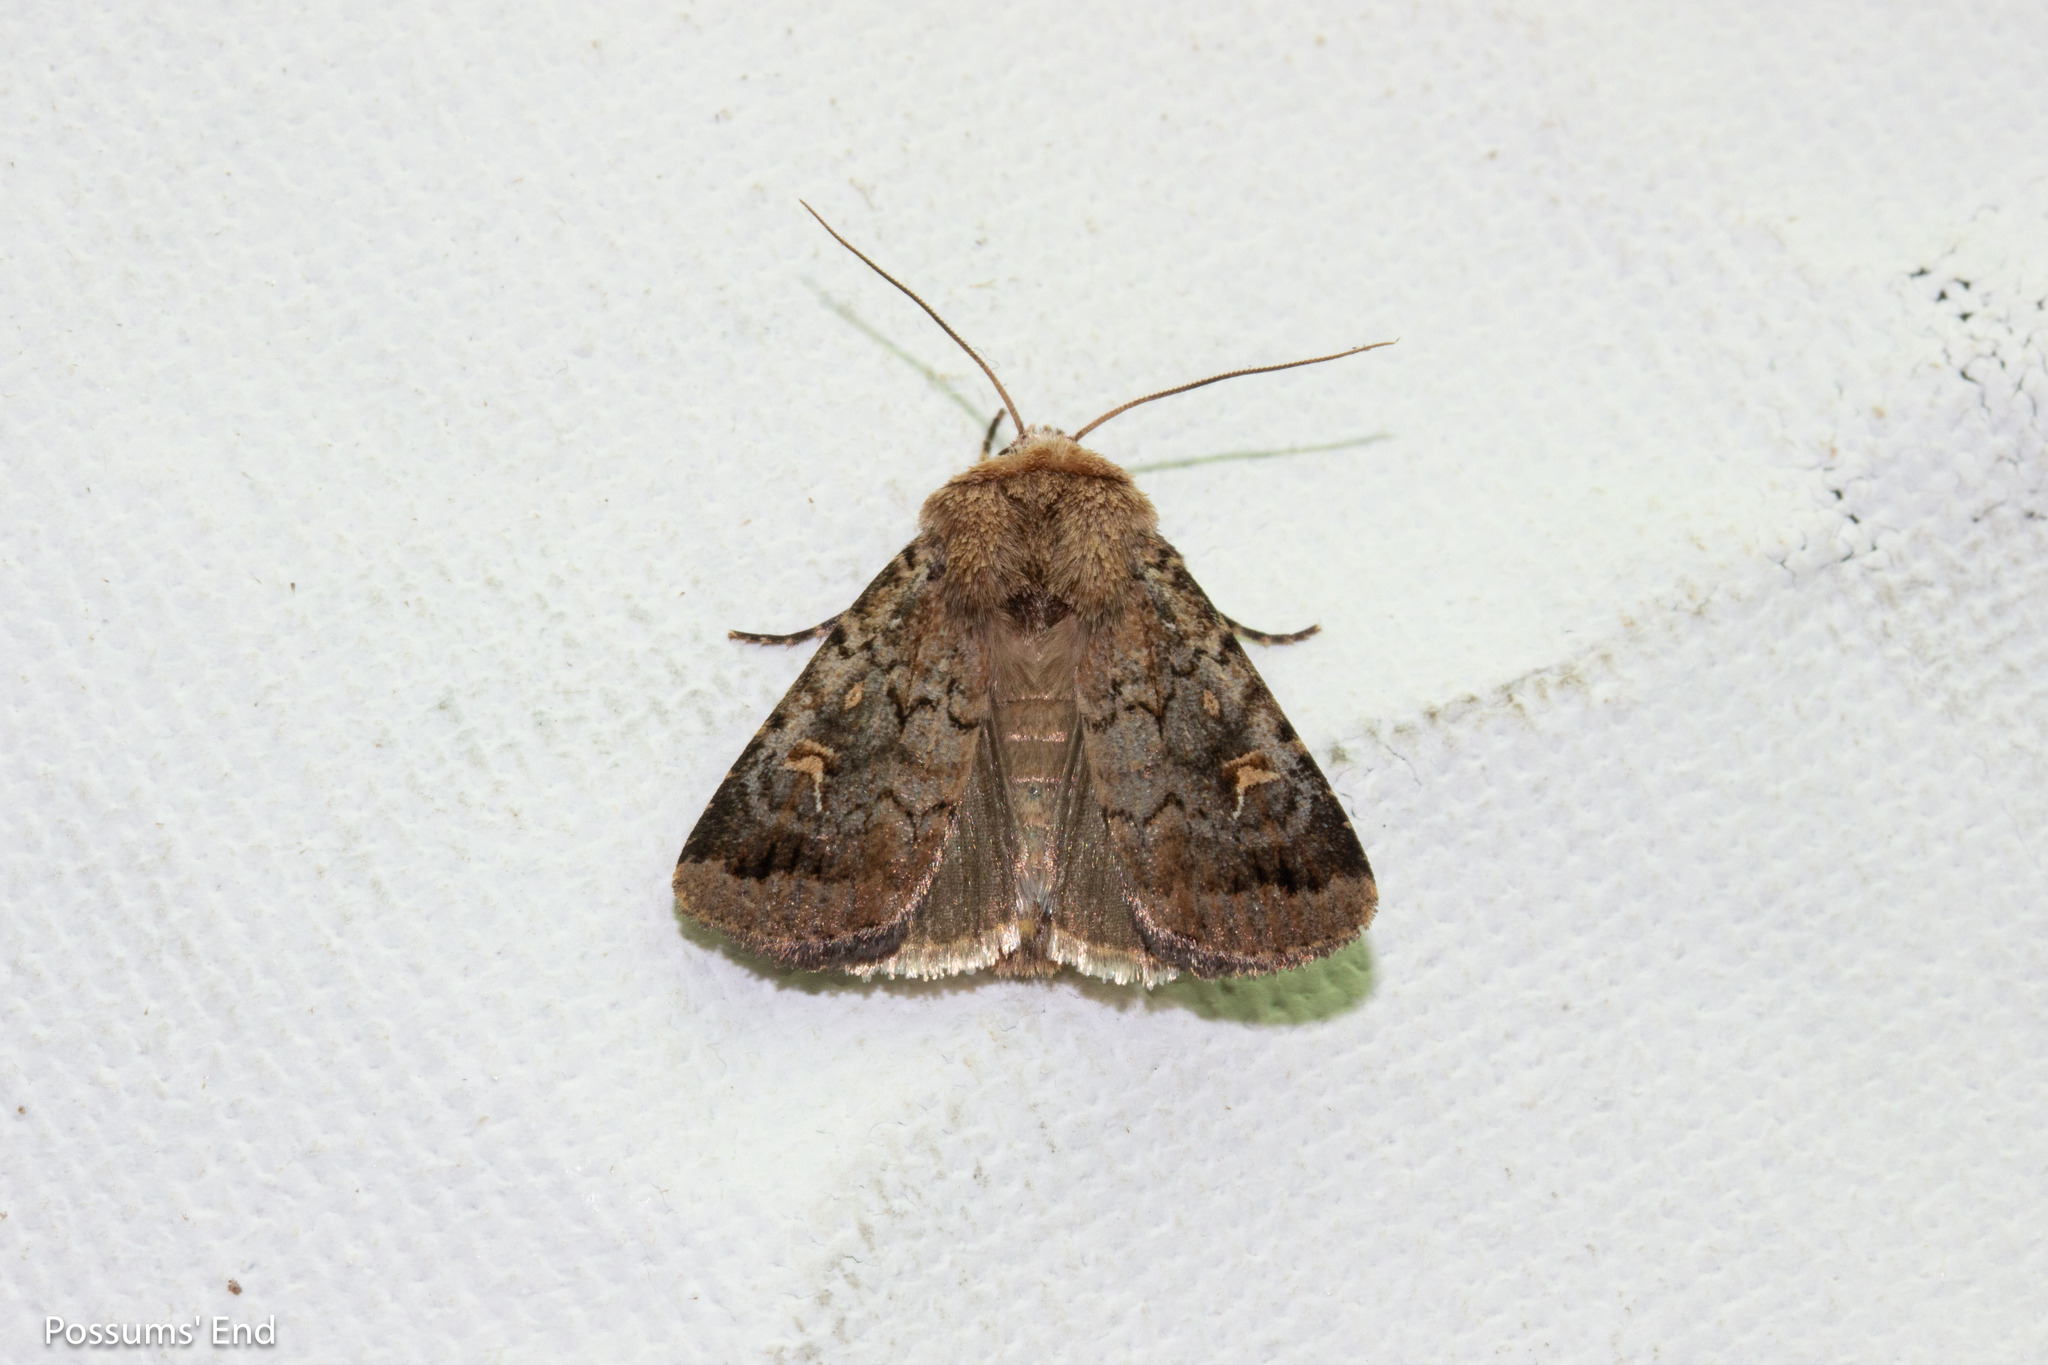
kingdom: Animalia
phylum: Arthropoda
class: Insecta
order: Lepidoptera
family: Noctuidae
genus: Proteuxoa
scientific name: Proteuxoa tetronycha
